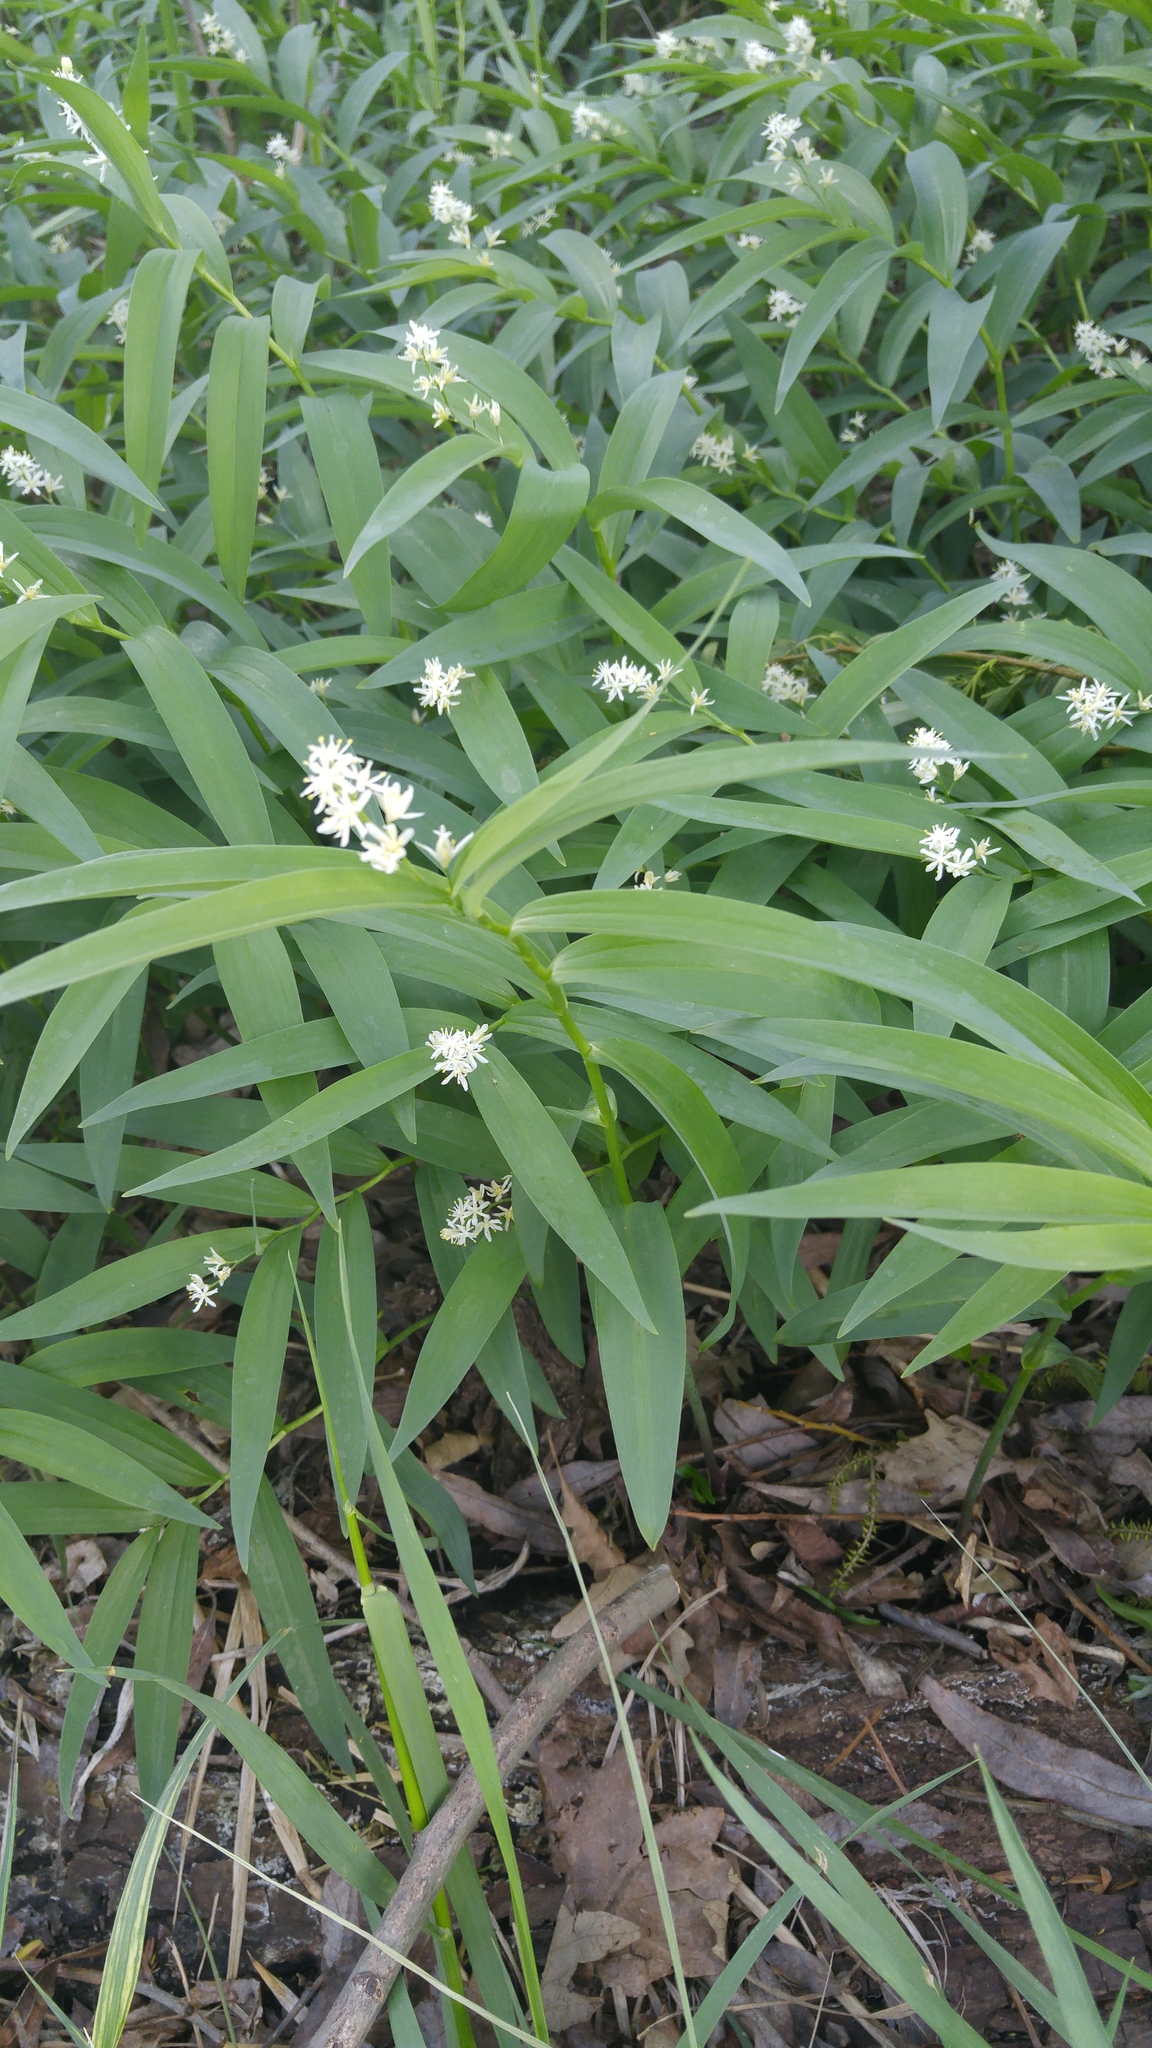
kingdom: Plantae
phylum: Tracheophyta
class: Liliopsida
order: Asparagales
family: Asparagaceae
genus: Maianthemum
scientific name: Maianthemum stellatum
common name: Little false solomon's seal
